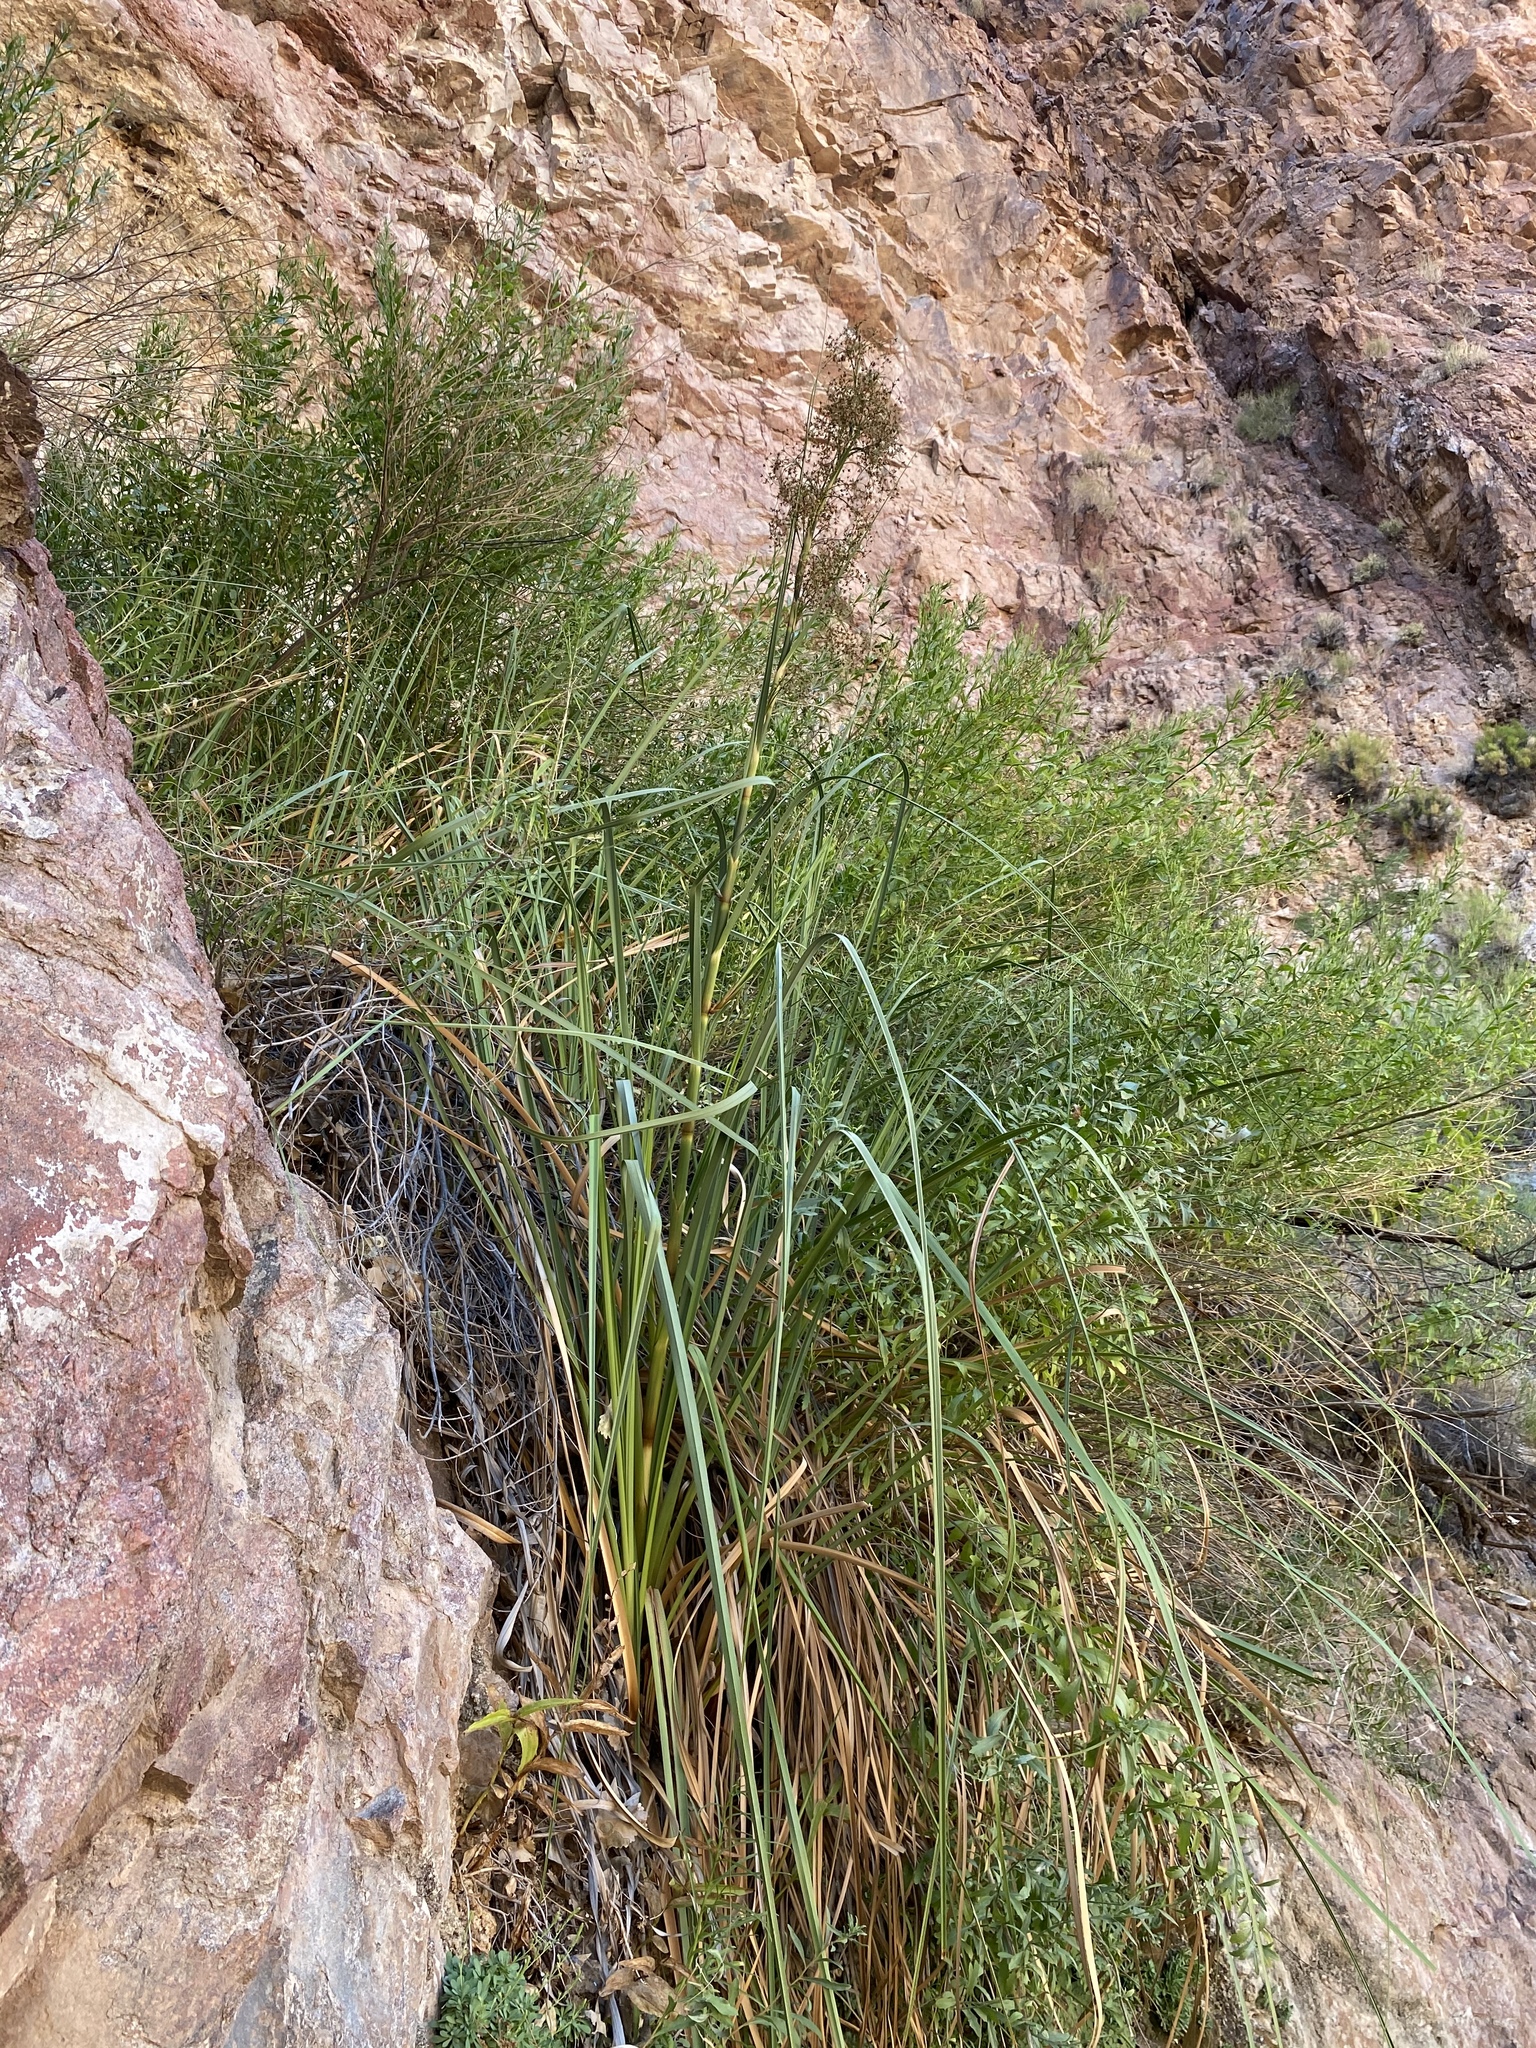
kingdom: Plantae
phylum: Tracheophyta
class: Liliopsida
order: Poales
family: Cyperaceae
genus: Cladium
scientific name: Cladium mariscus
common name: Great fen-sedge
